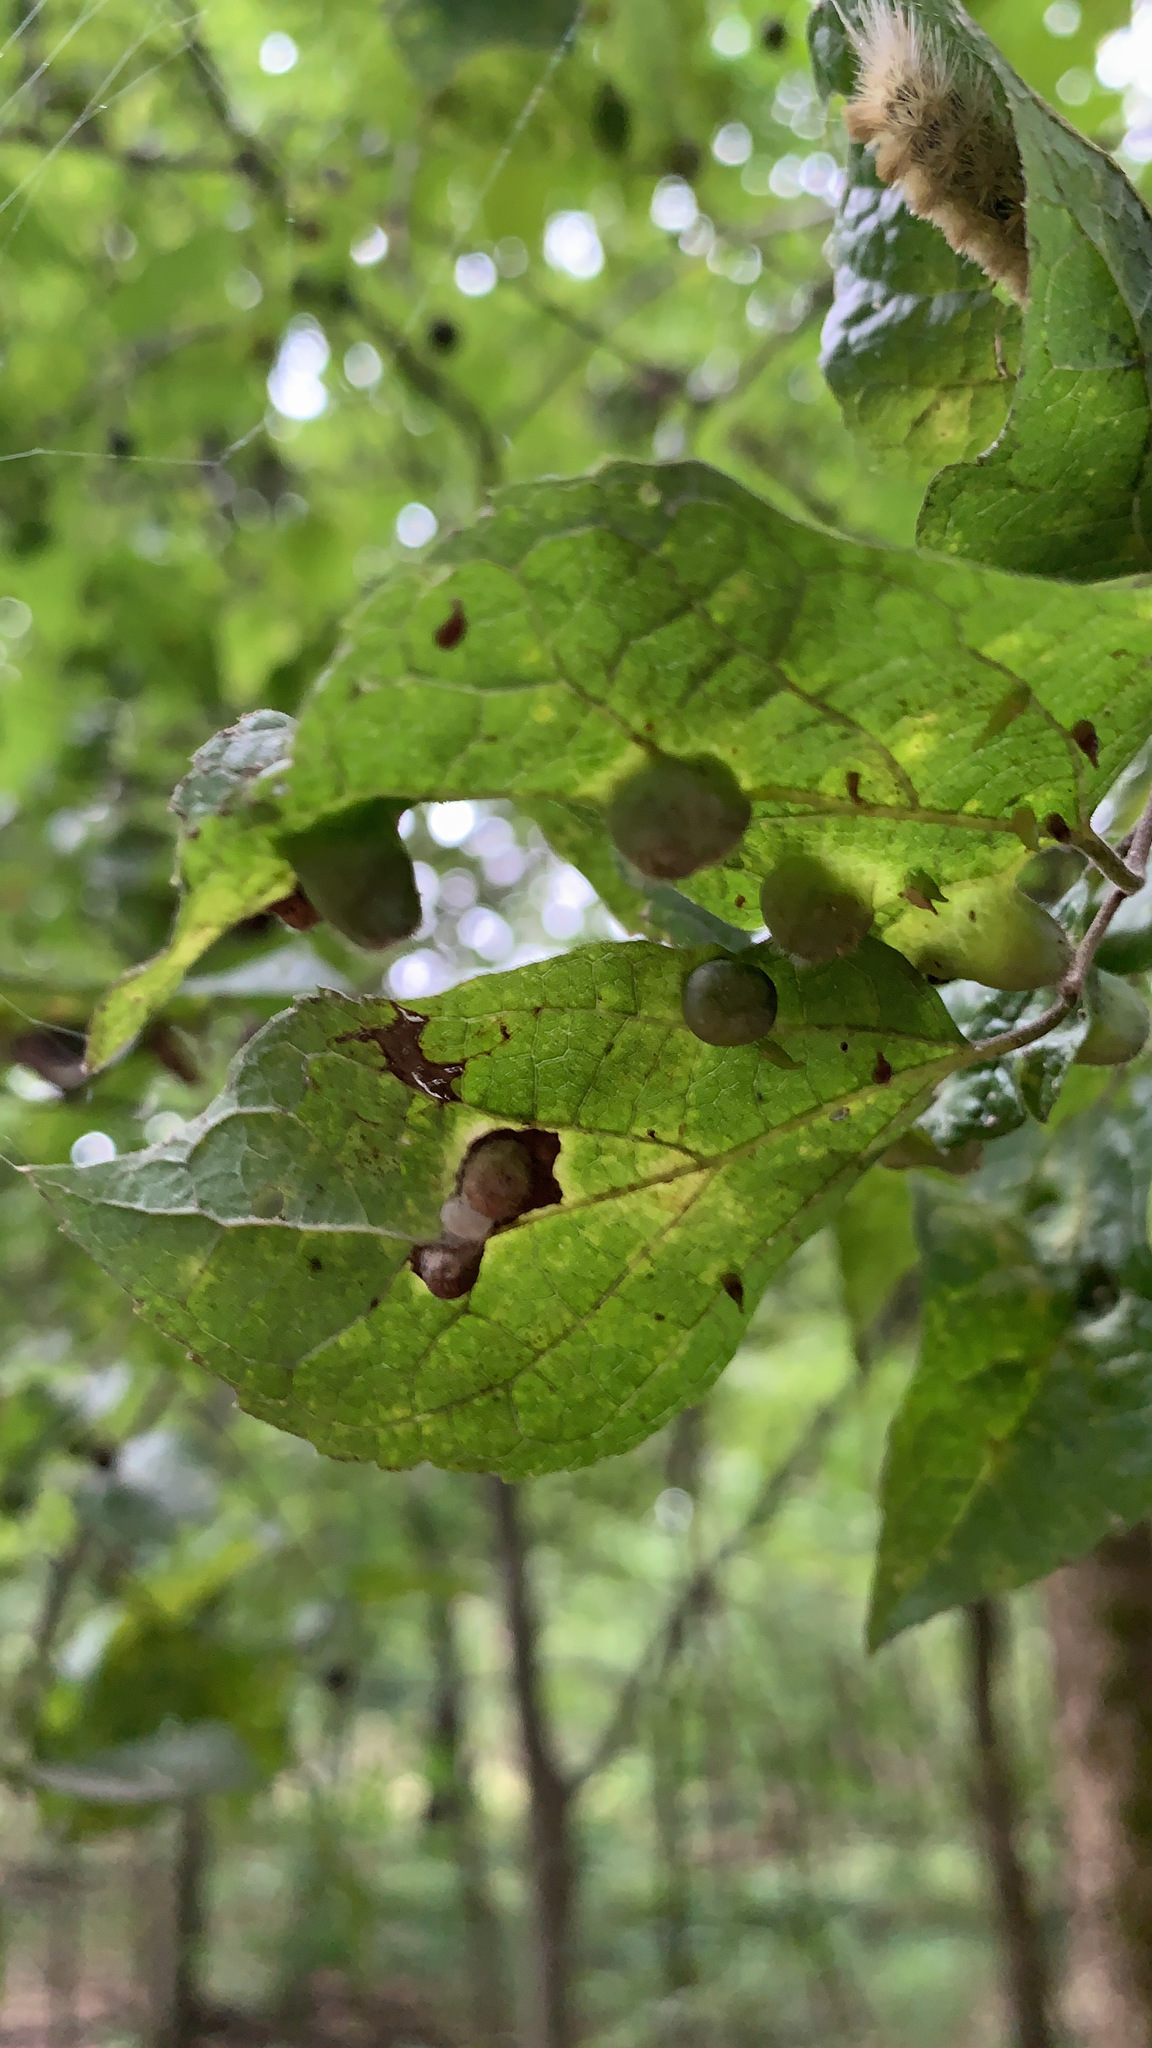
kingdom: Animalia
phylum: Arthropoda
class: Insecta
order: Hemiptera
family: Aphalaridae
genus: Pachypsylla
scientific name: Pachypsylla celtidismamma
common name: Hackberry nipplegall psyllid
